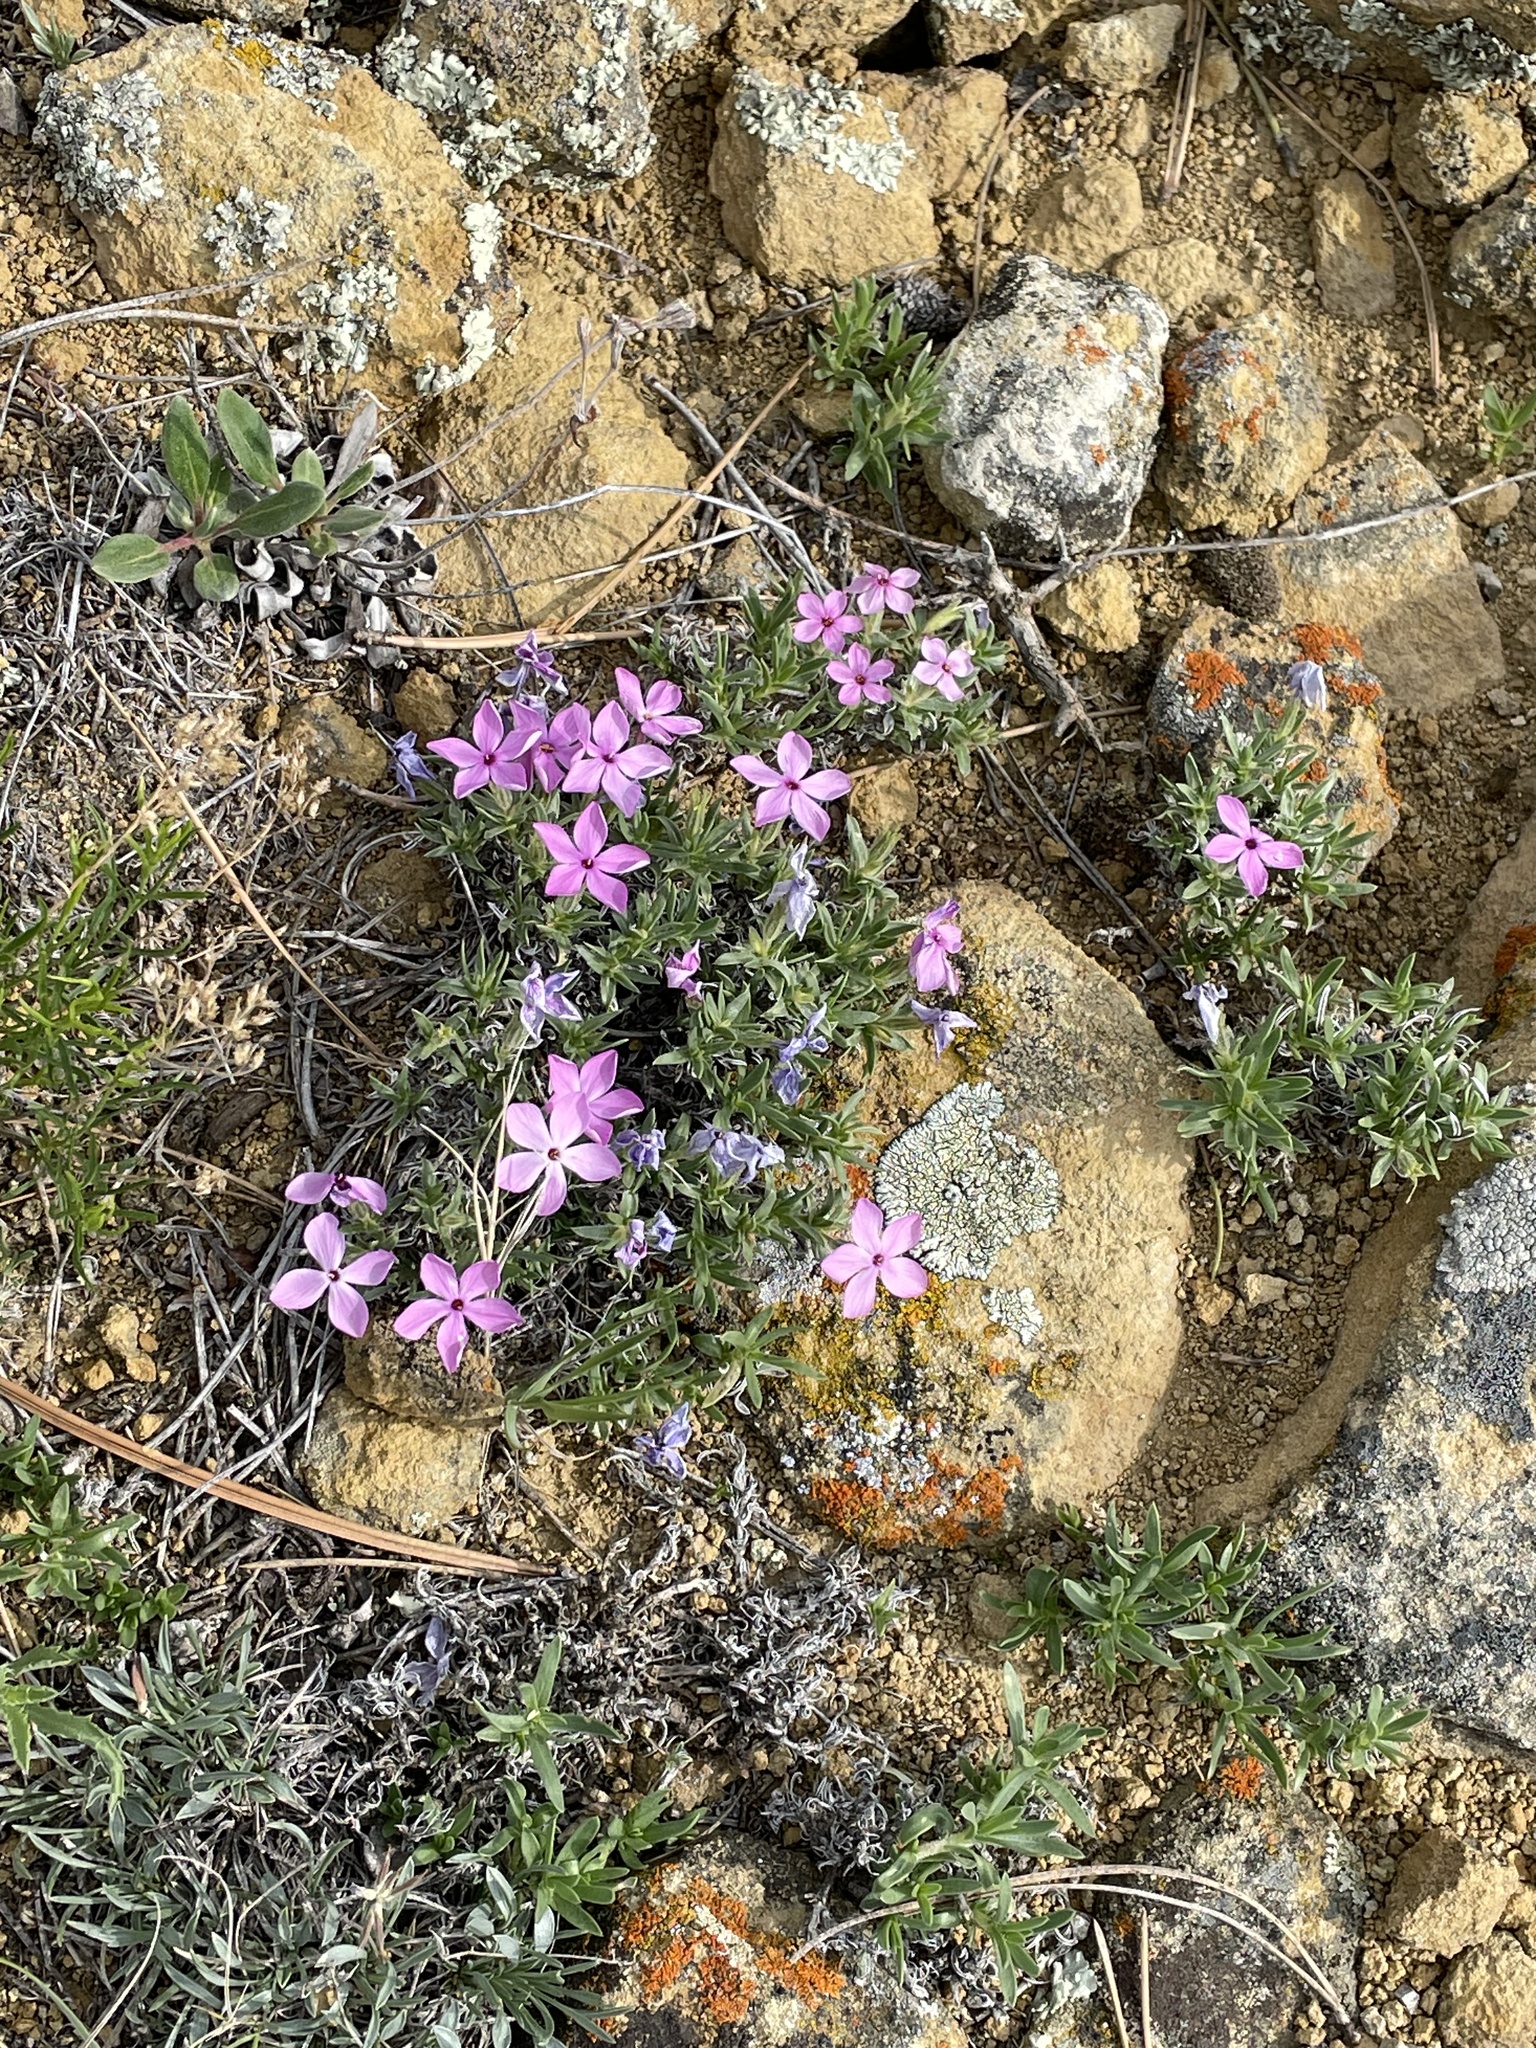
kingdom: Plantae
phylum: Tracheophyta
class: Magnoliopsida
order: Ericales
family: Polemoniaceae
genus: Phlox
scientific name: Phlox alyssifolia
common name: Blue phlox
